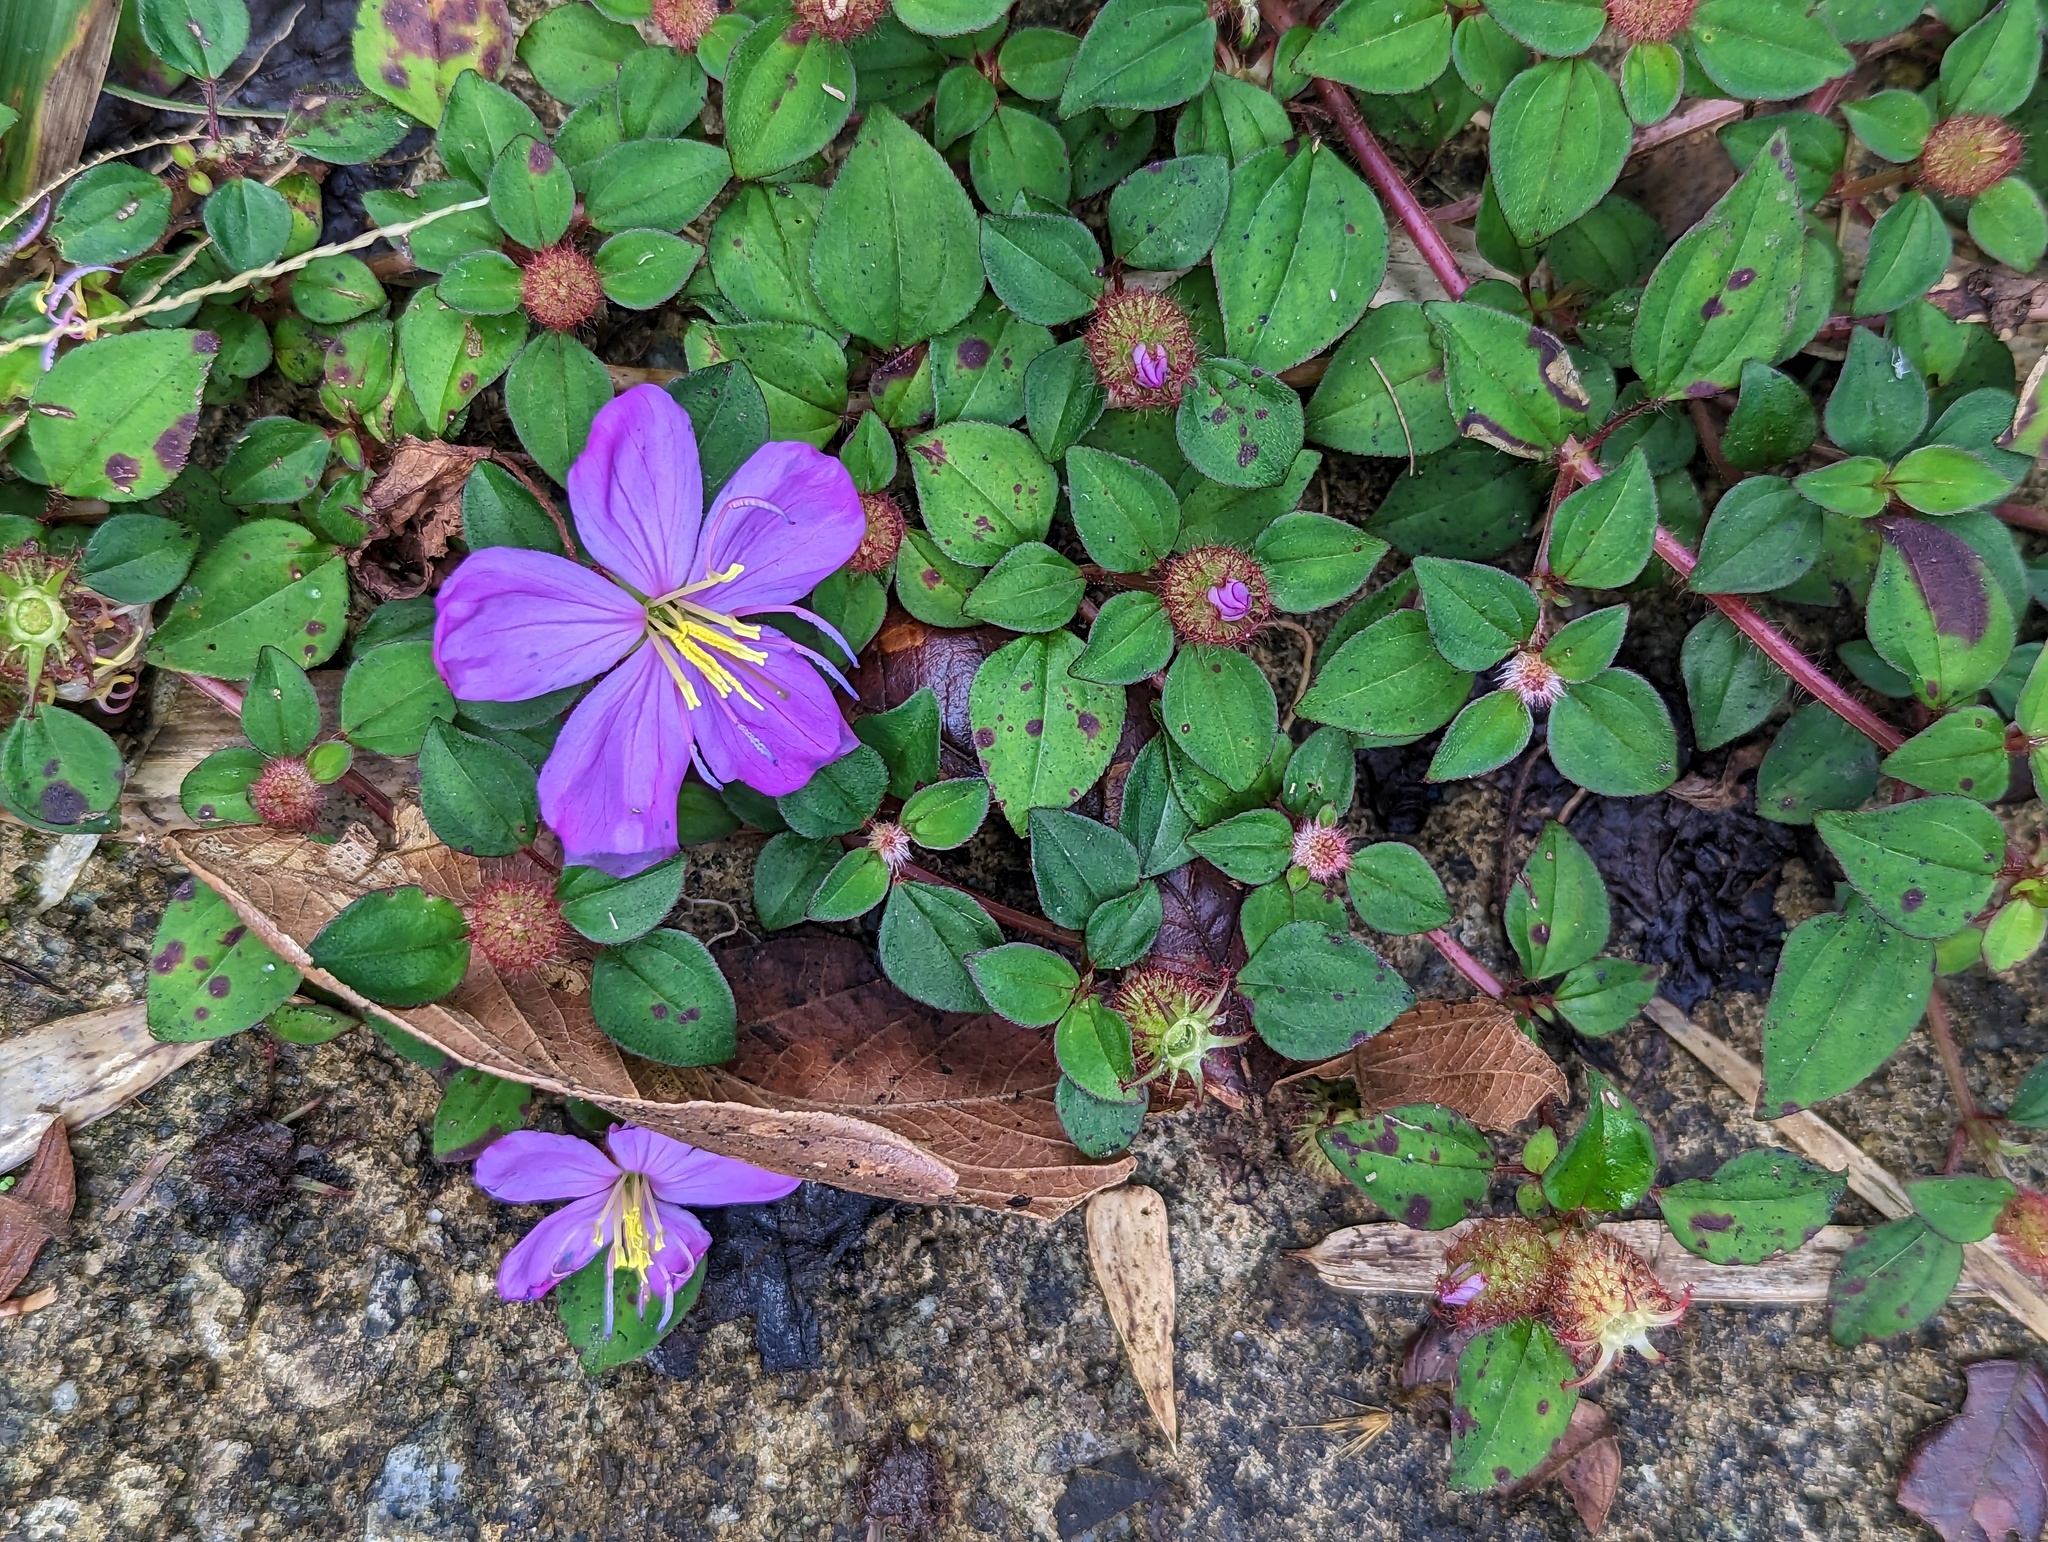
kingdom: Plantae
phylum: Tracheophyta
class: Magnoliopsida
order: Myrtales
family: Melastomataceae
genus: Heterotis
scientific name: Heterotis rotundifolia
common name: Pinklady
